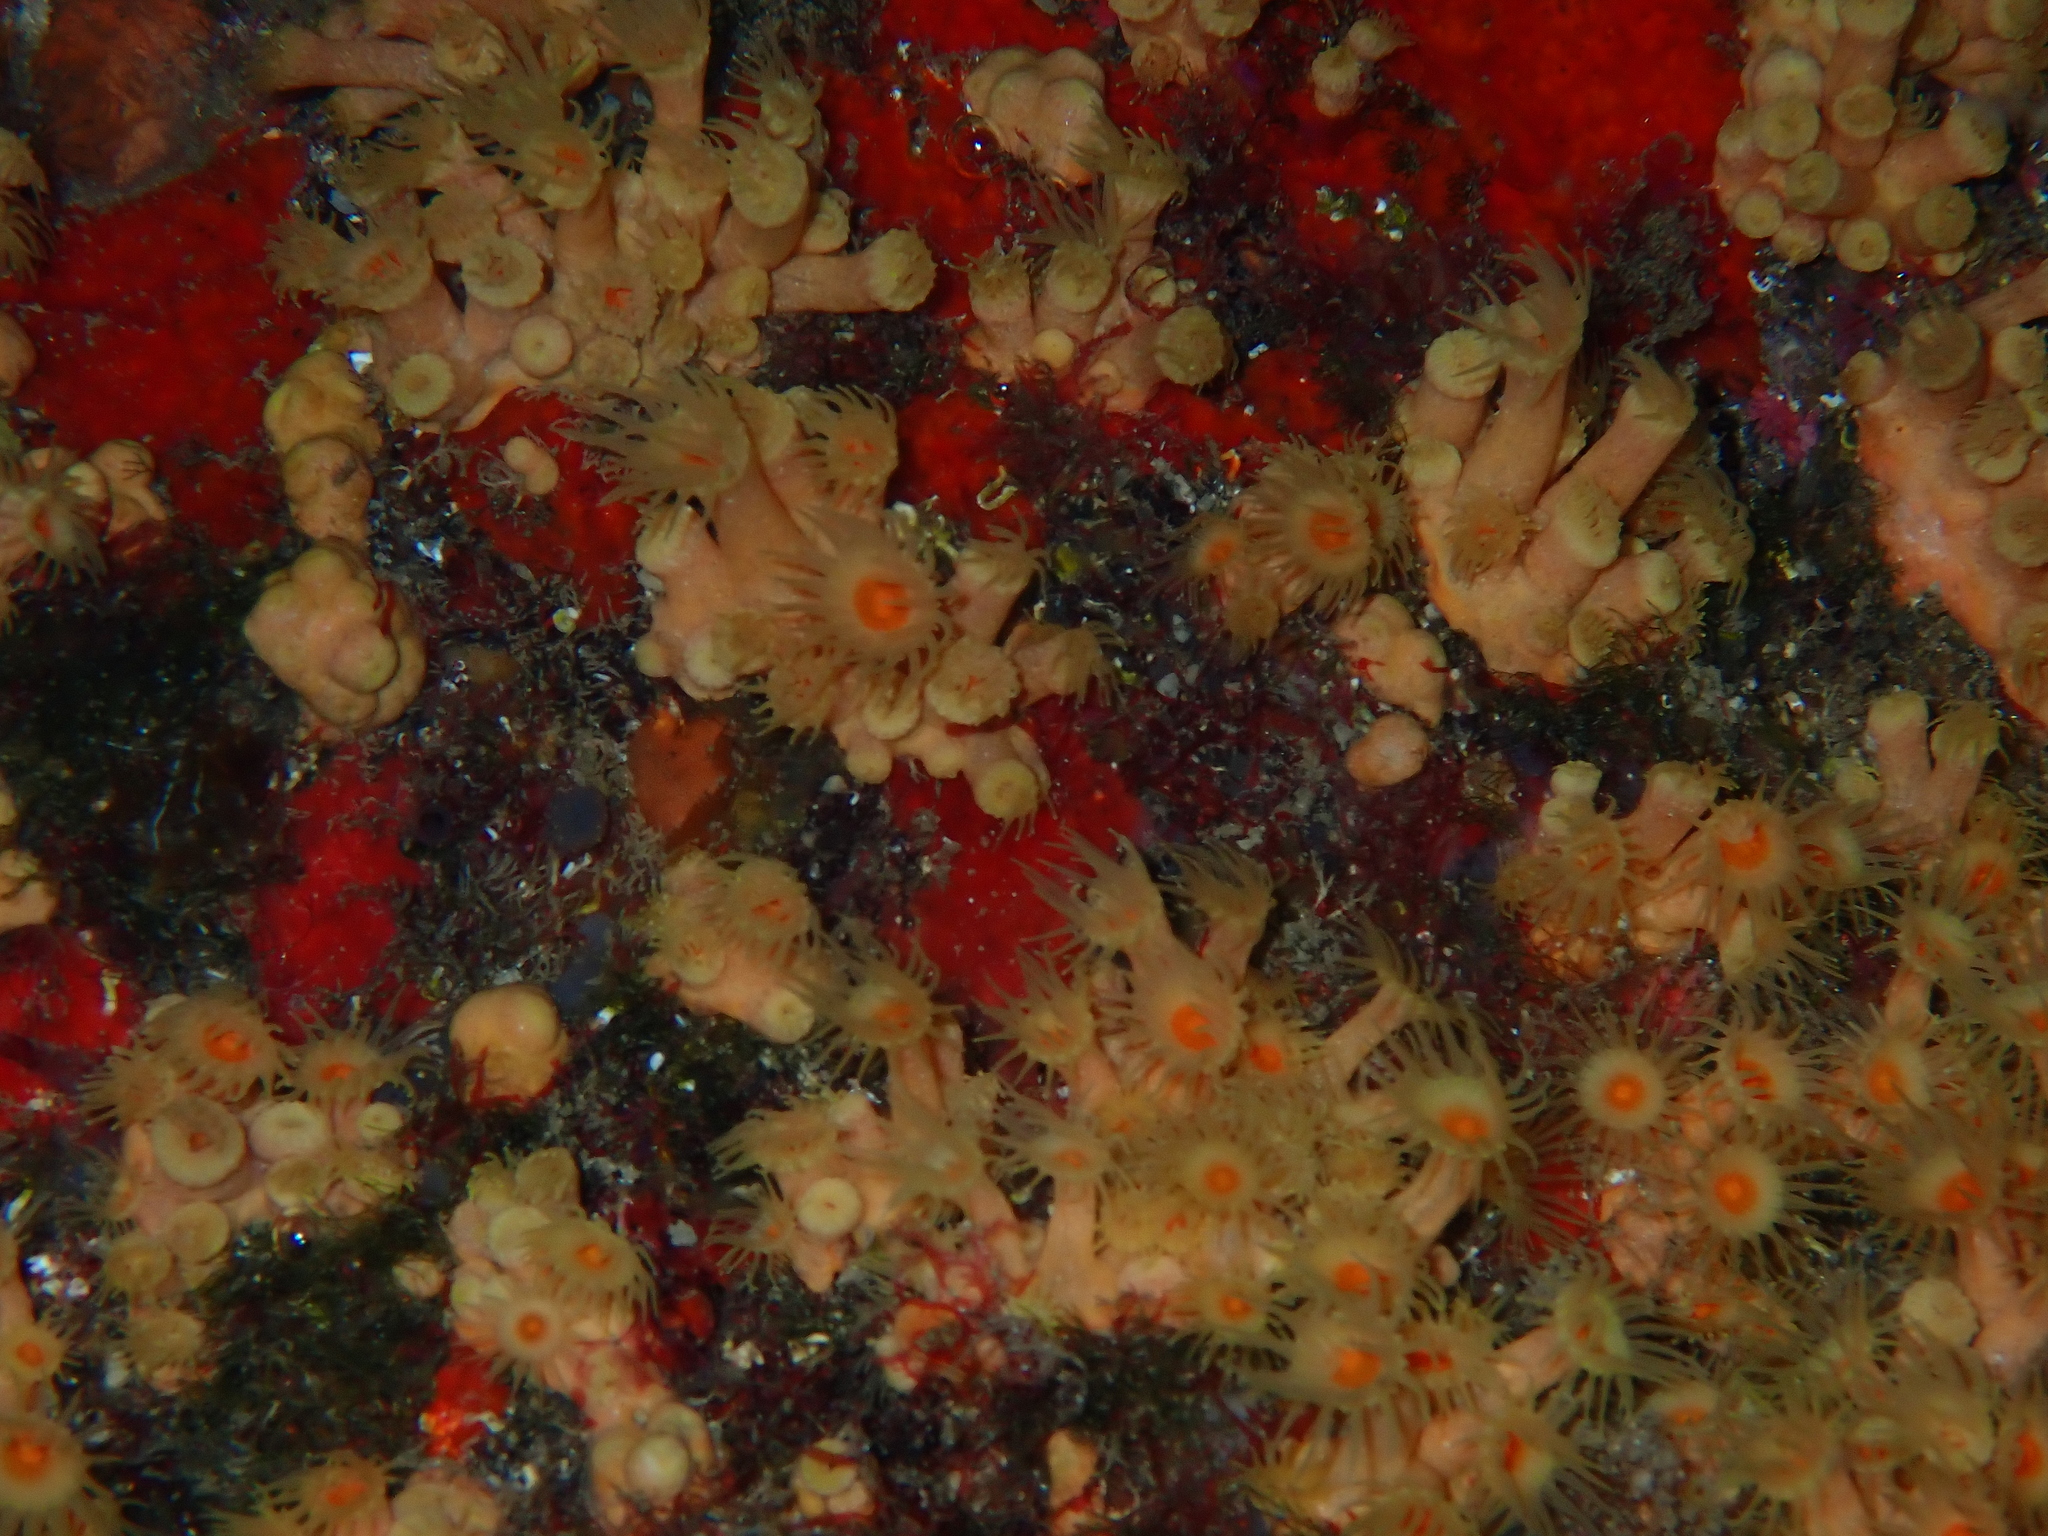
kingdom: Animalia
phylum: Cnidaria
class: Anthozoa
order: Zoantharia
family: Parazoanthidae
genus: Parazoanthus
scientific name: Parazoanthus axinellae
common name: Yellow cluster anemone
